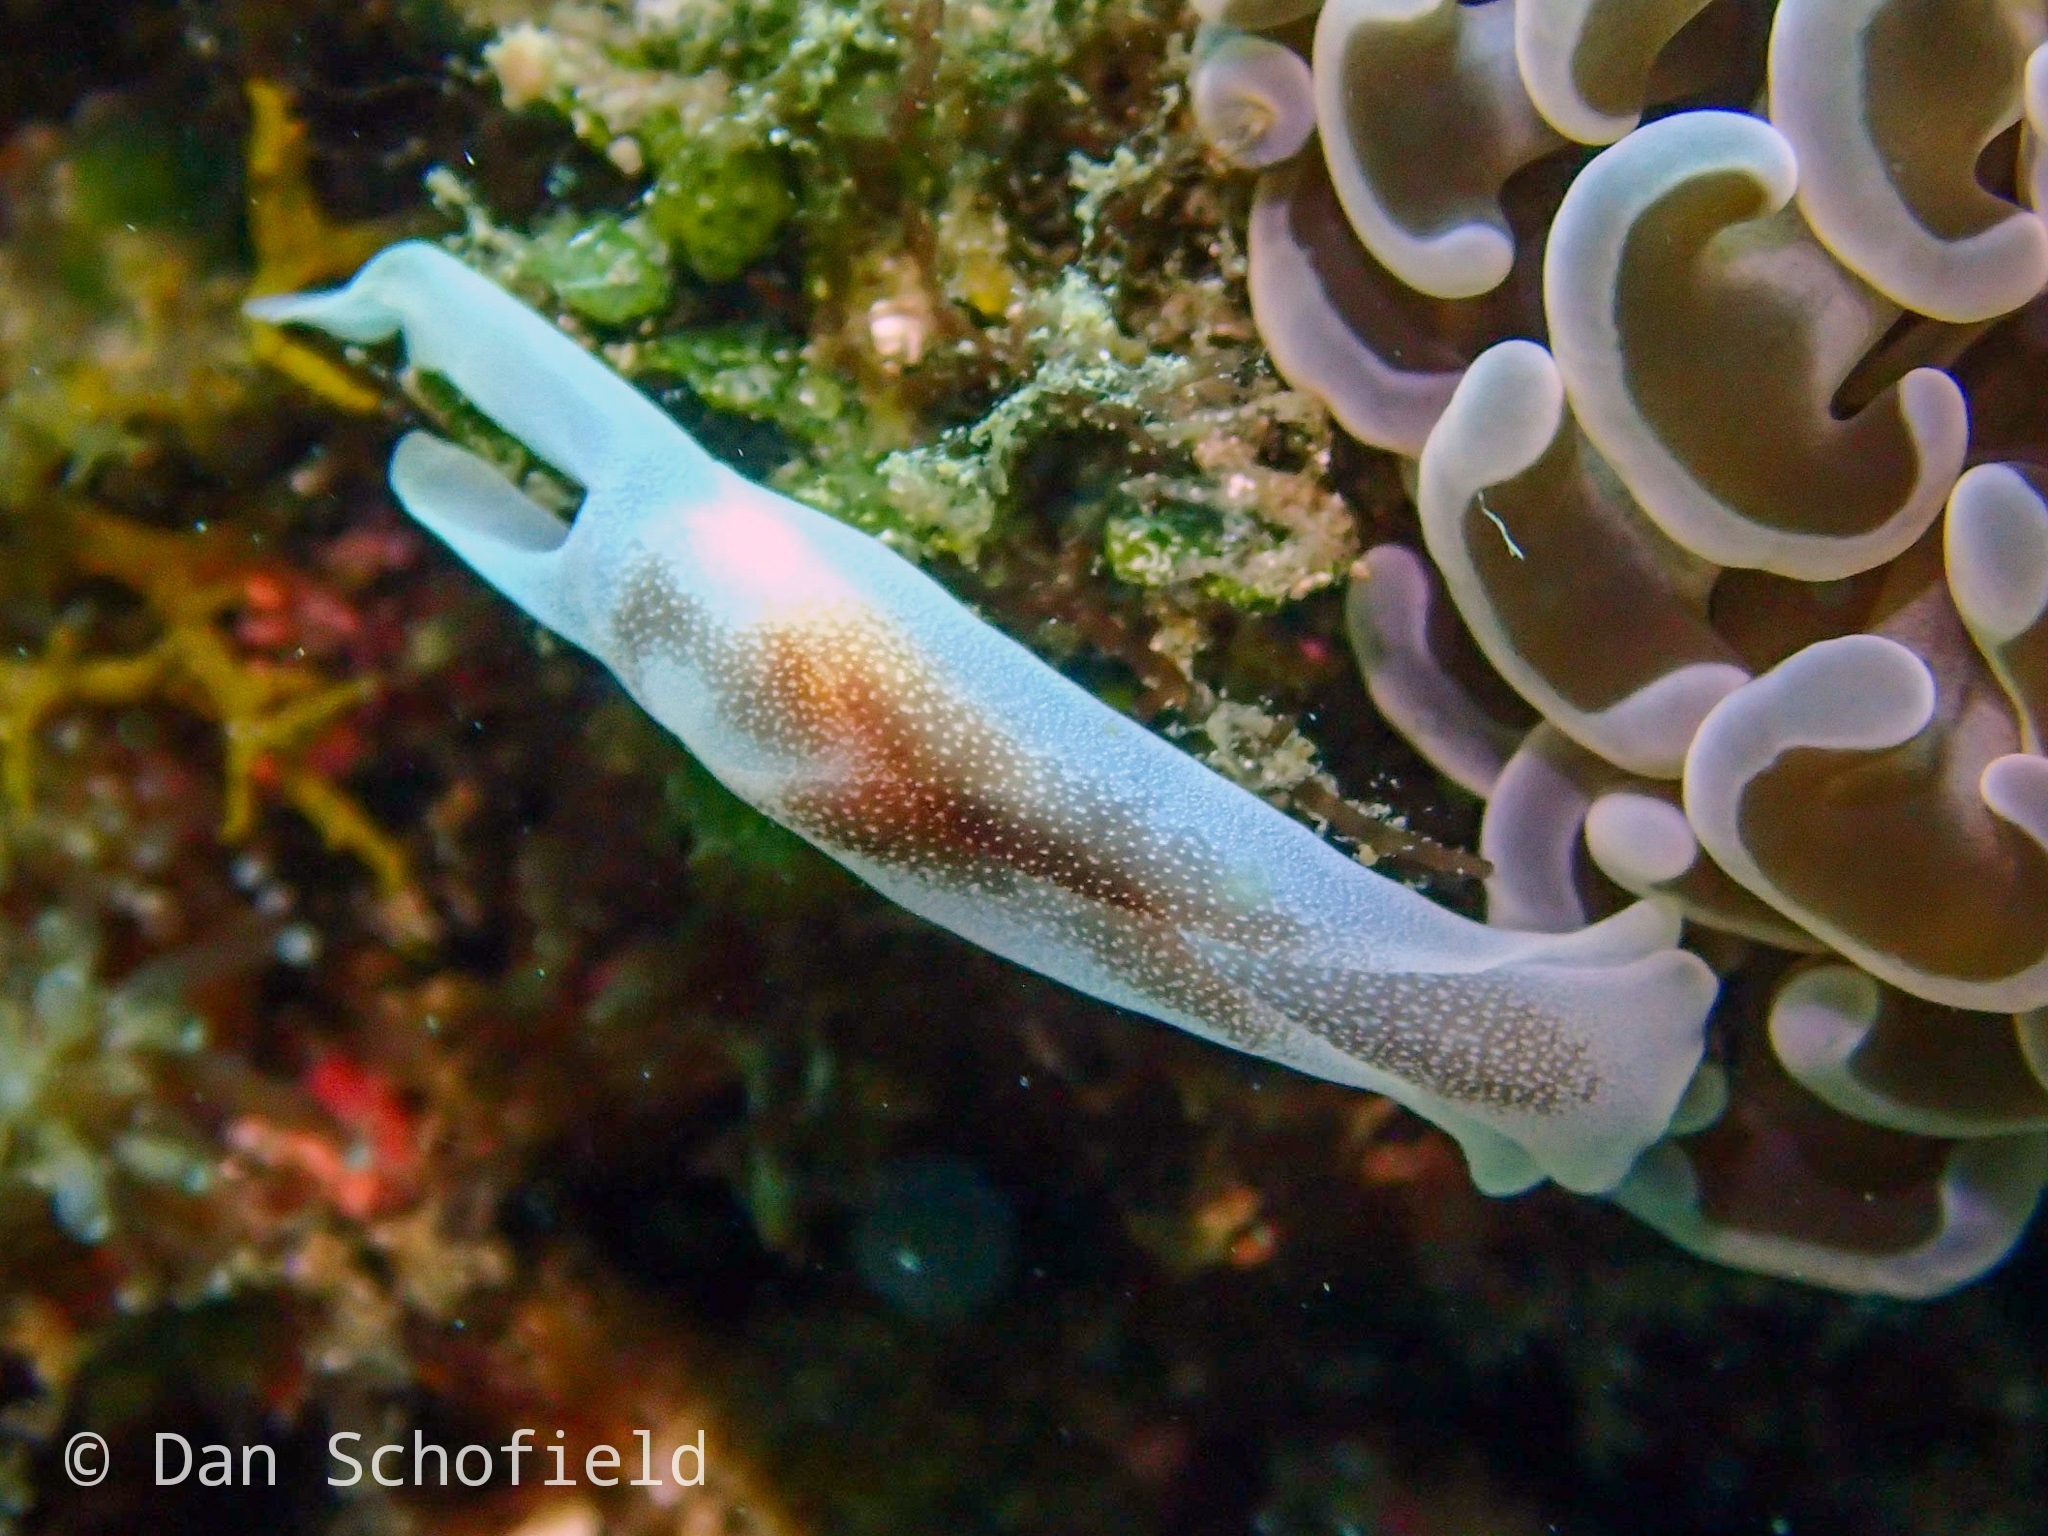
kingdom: Animalia
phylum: Mollusca
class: Gastropoda
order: Cephalaspidea
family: Aglajidae
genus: Chelidonura
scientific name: Chelidonura amoena
